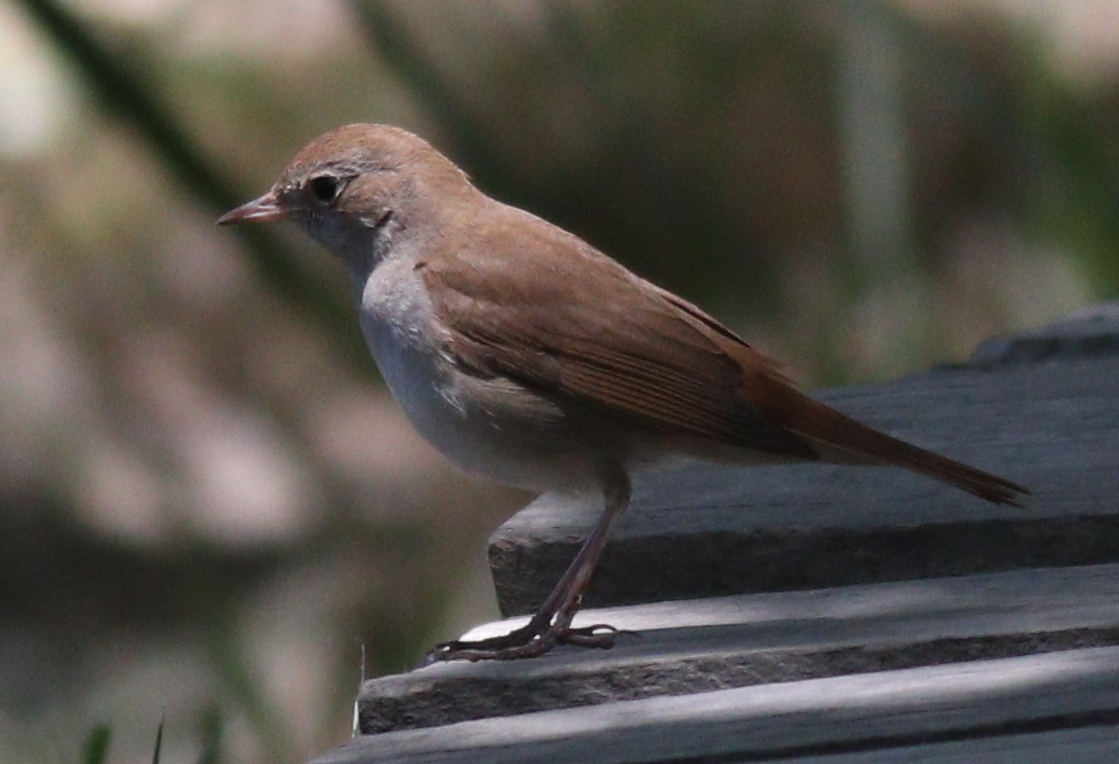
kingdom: Animalia
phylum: Chordata
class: Aves
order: Passeriformes
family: Muscicapidae
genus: Luscinia
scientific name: Luscinia megarhynchos
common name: Common nightingale
